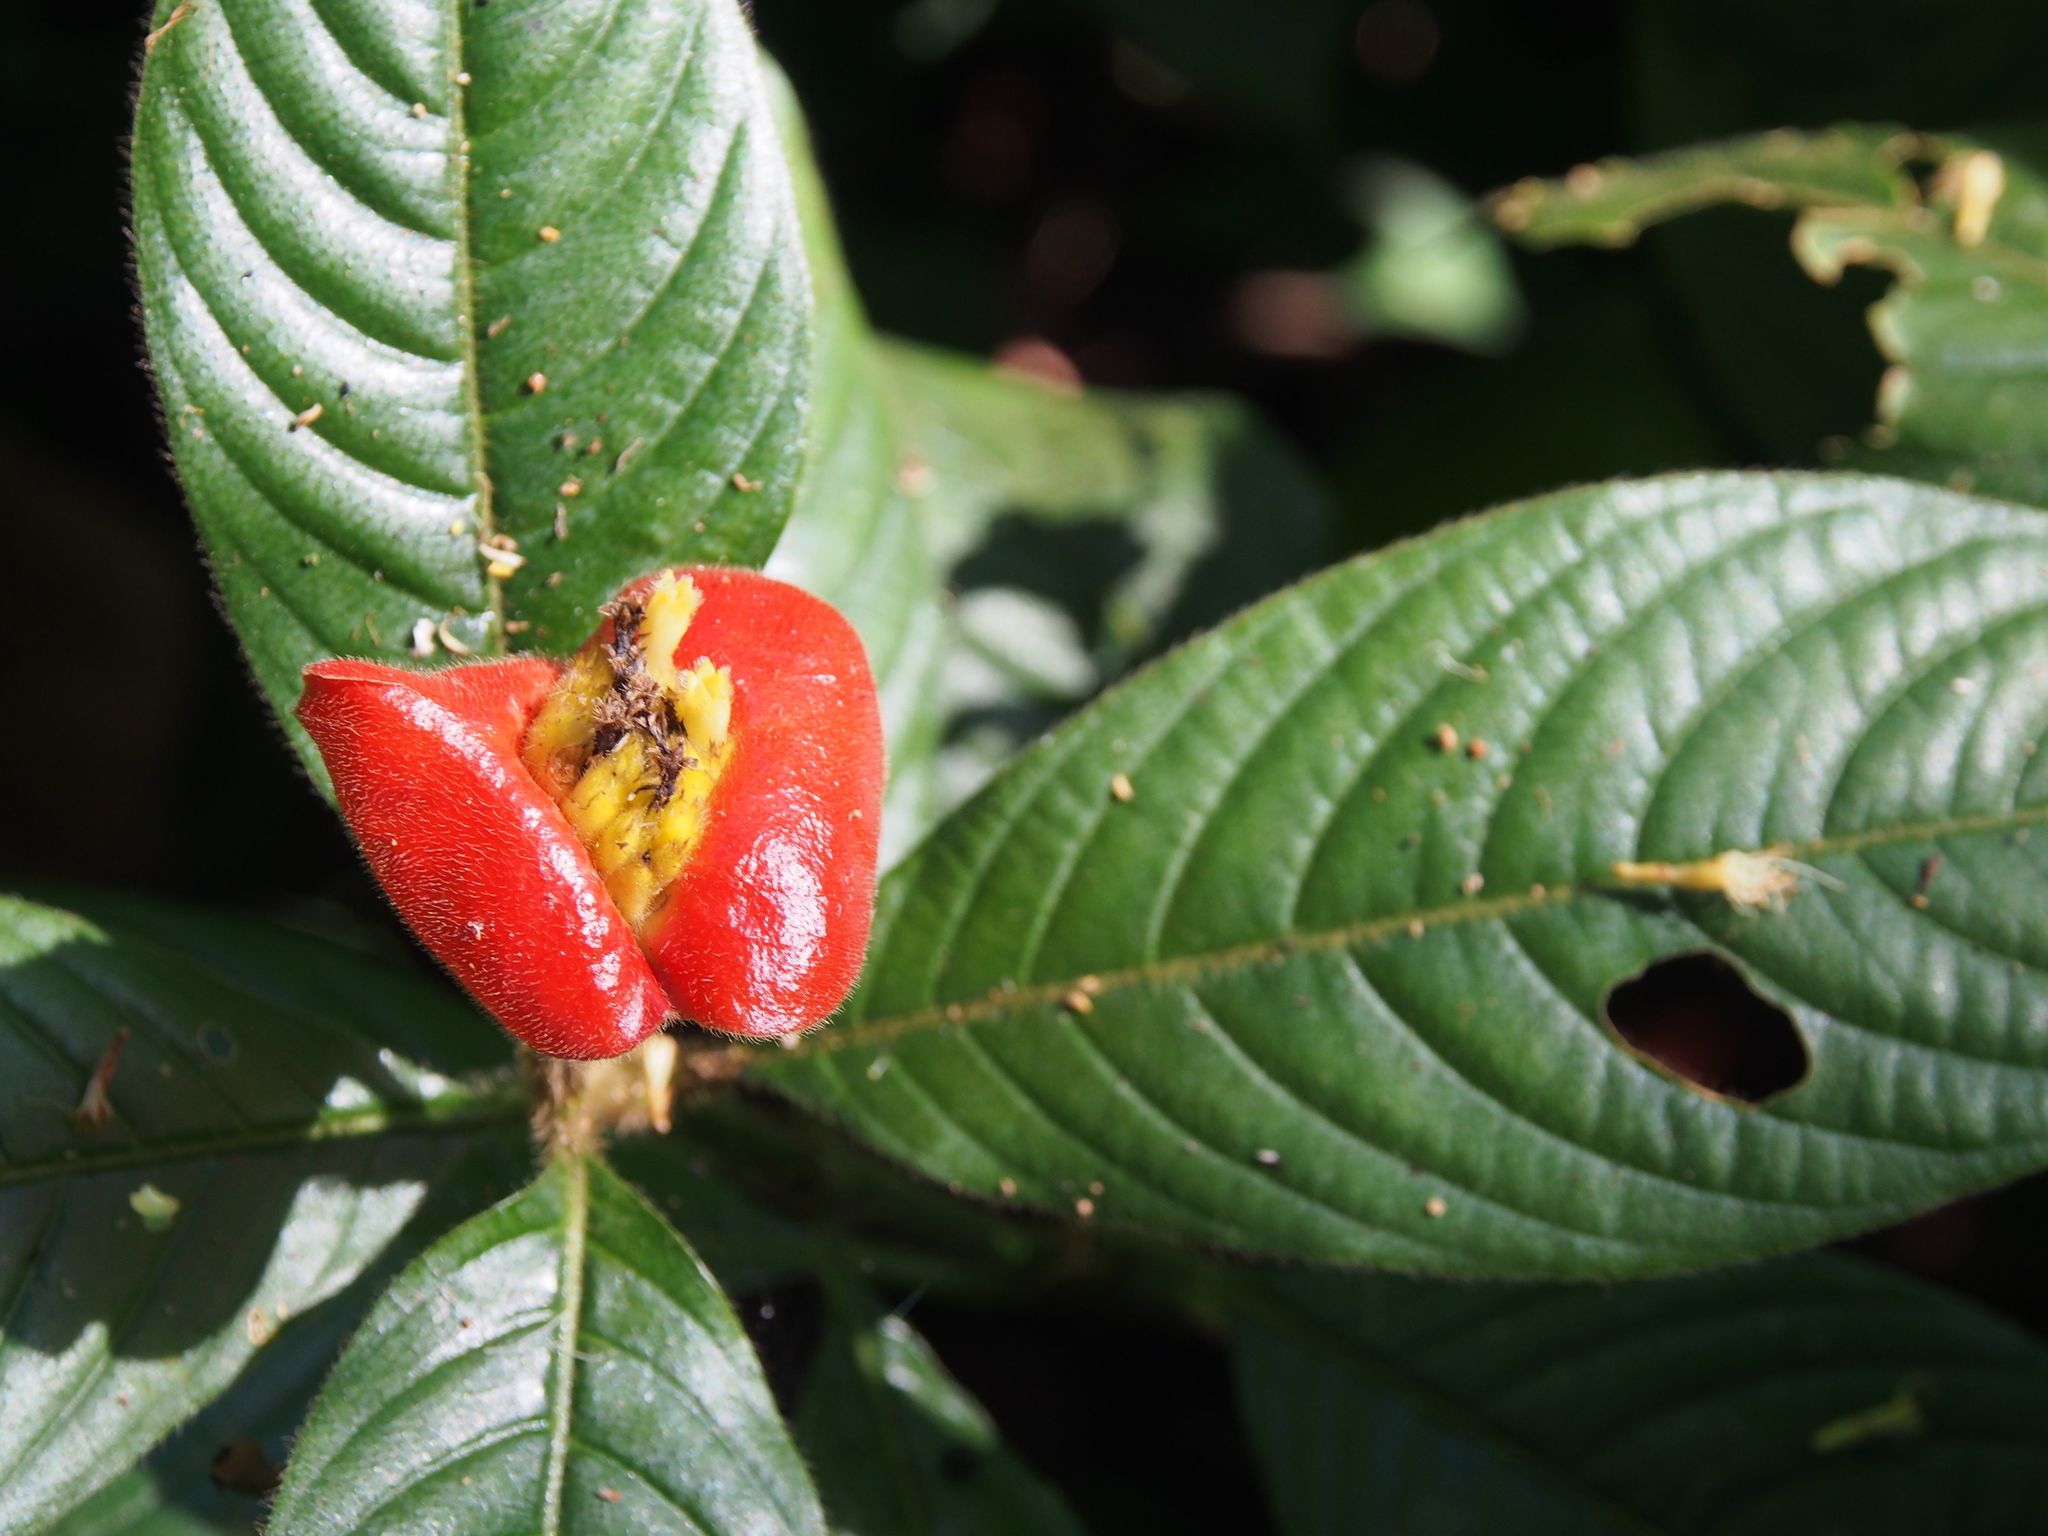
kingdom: Plantae
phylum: Tracheophyta
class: Magnoliopsida
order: Gentianales
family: Rubiaceae
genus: Palicourea
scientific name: Palicourea tomentosa
